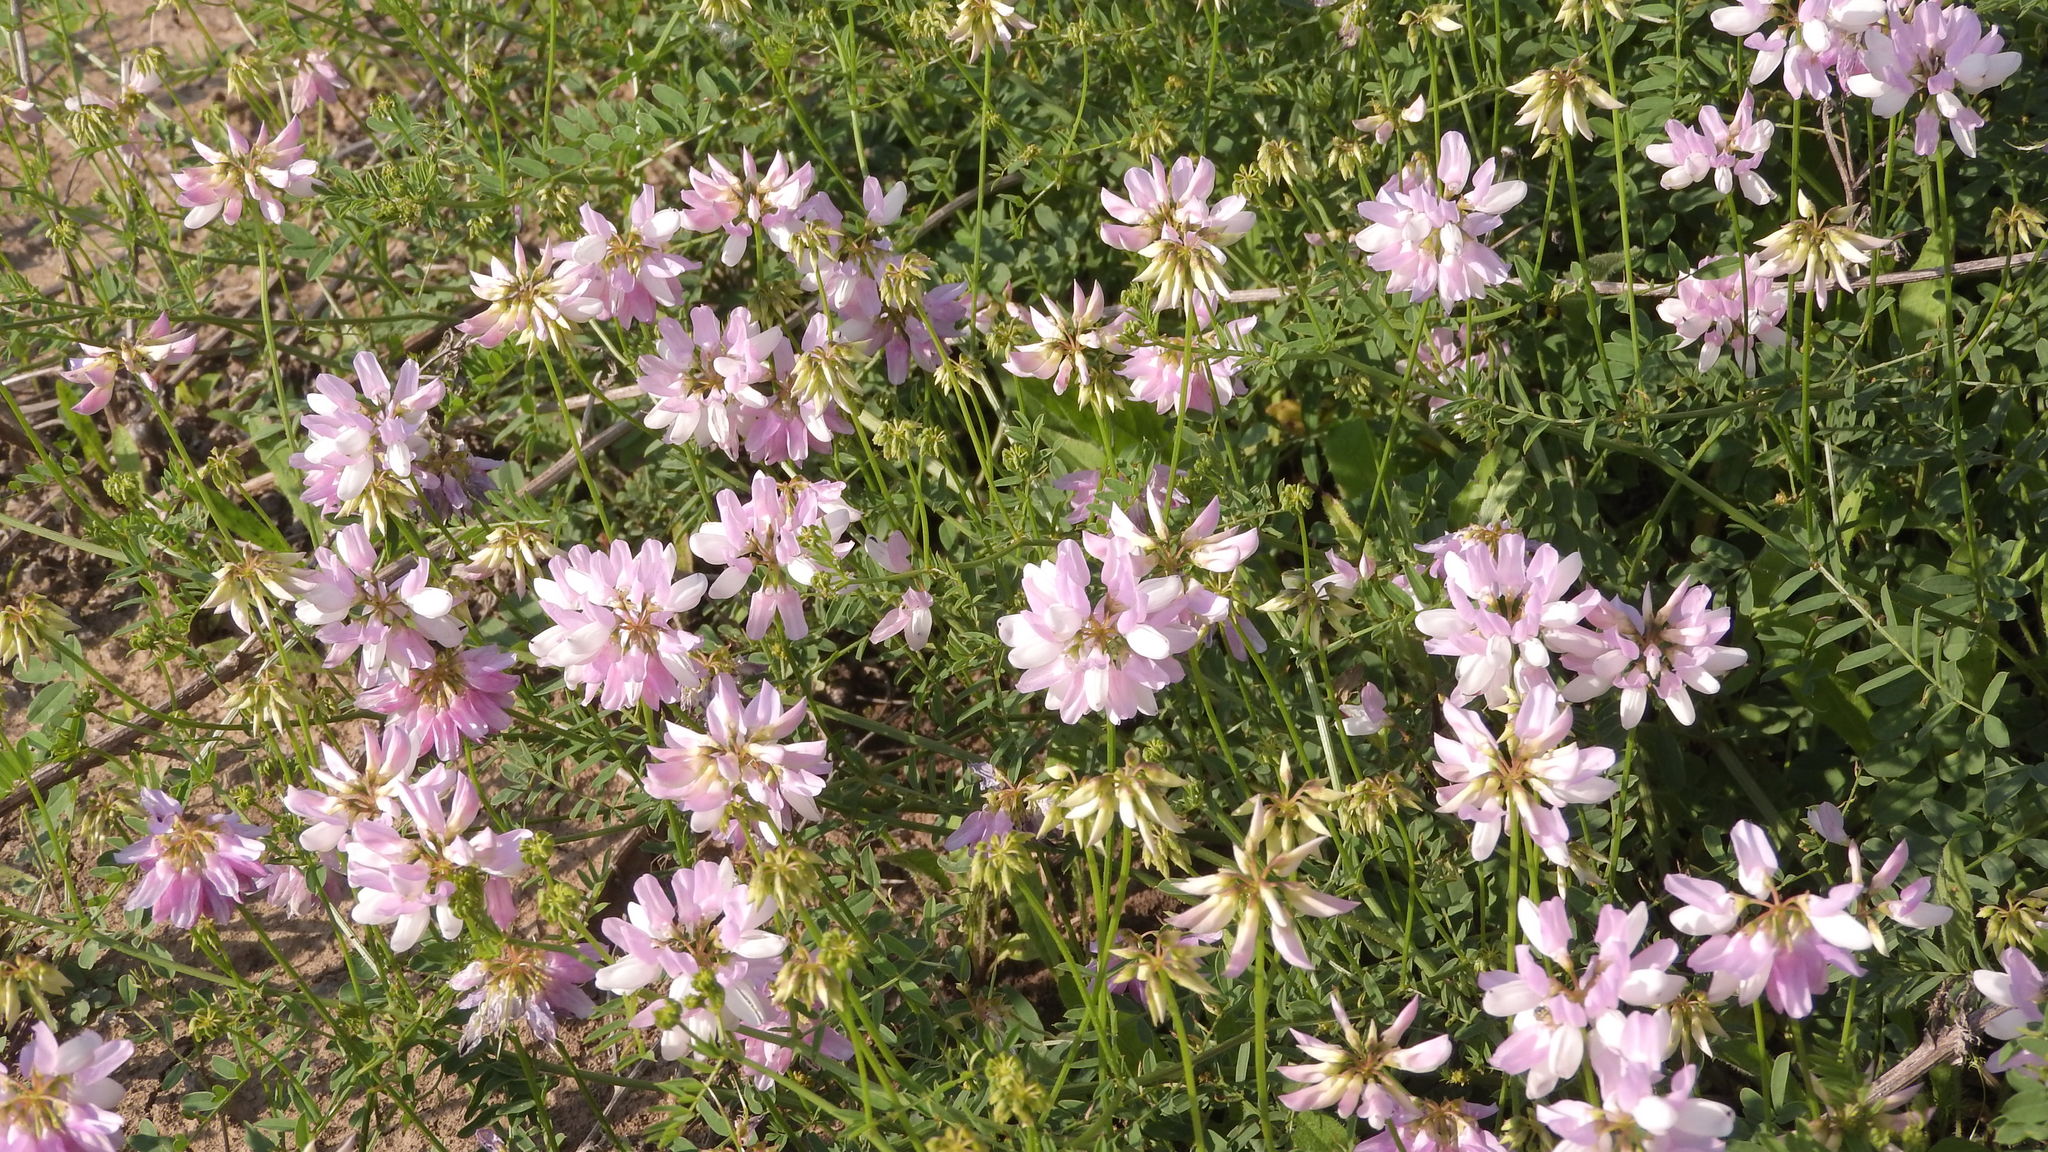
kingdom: Plantae
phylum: Tracheophyta
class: Magnoliopsida
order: Fabales
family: Fabaceae
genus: Coronilla
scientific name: Coronilla varia
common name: Crownvetch
